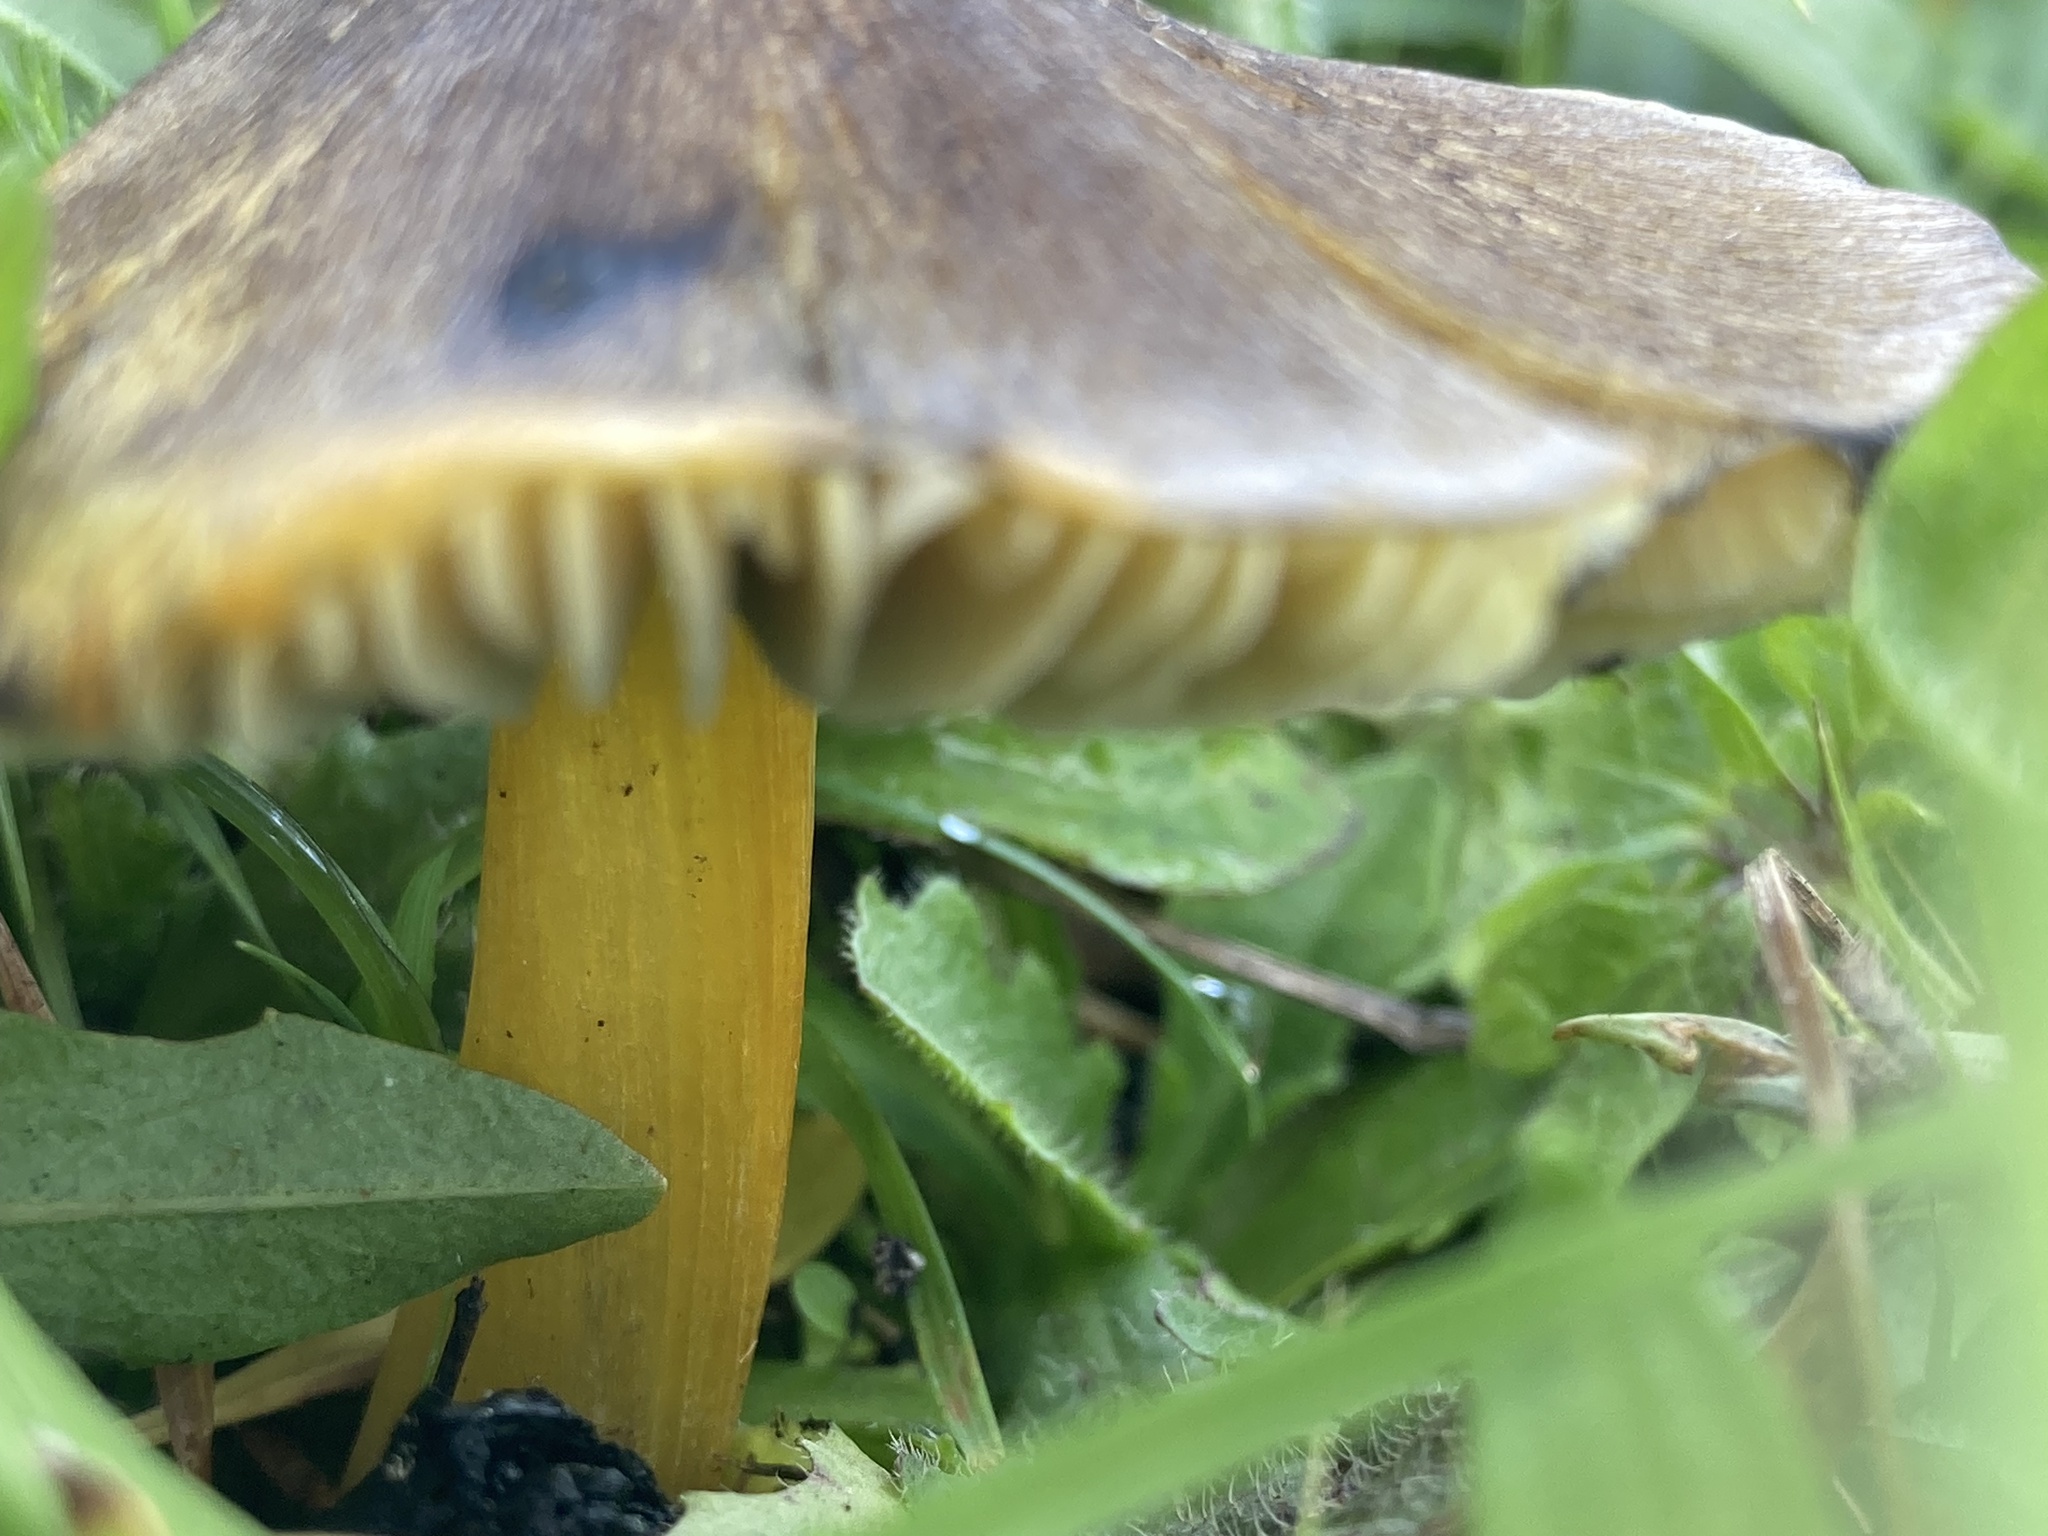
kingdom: Fungi
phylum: Basidiomycota
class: Agaricomycetes
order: Agaricales
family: Hygrophoraceae
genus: Hygrocybe
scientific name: Hygrocybe nigrescens
